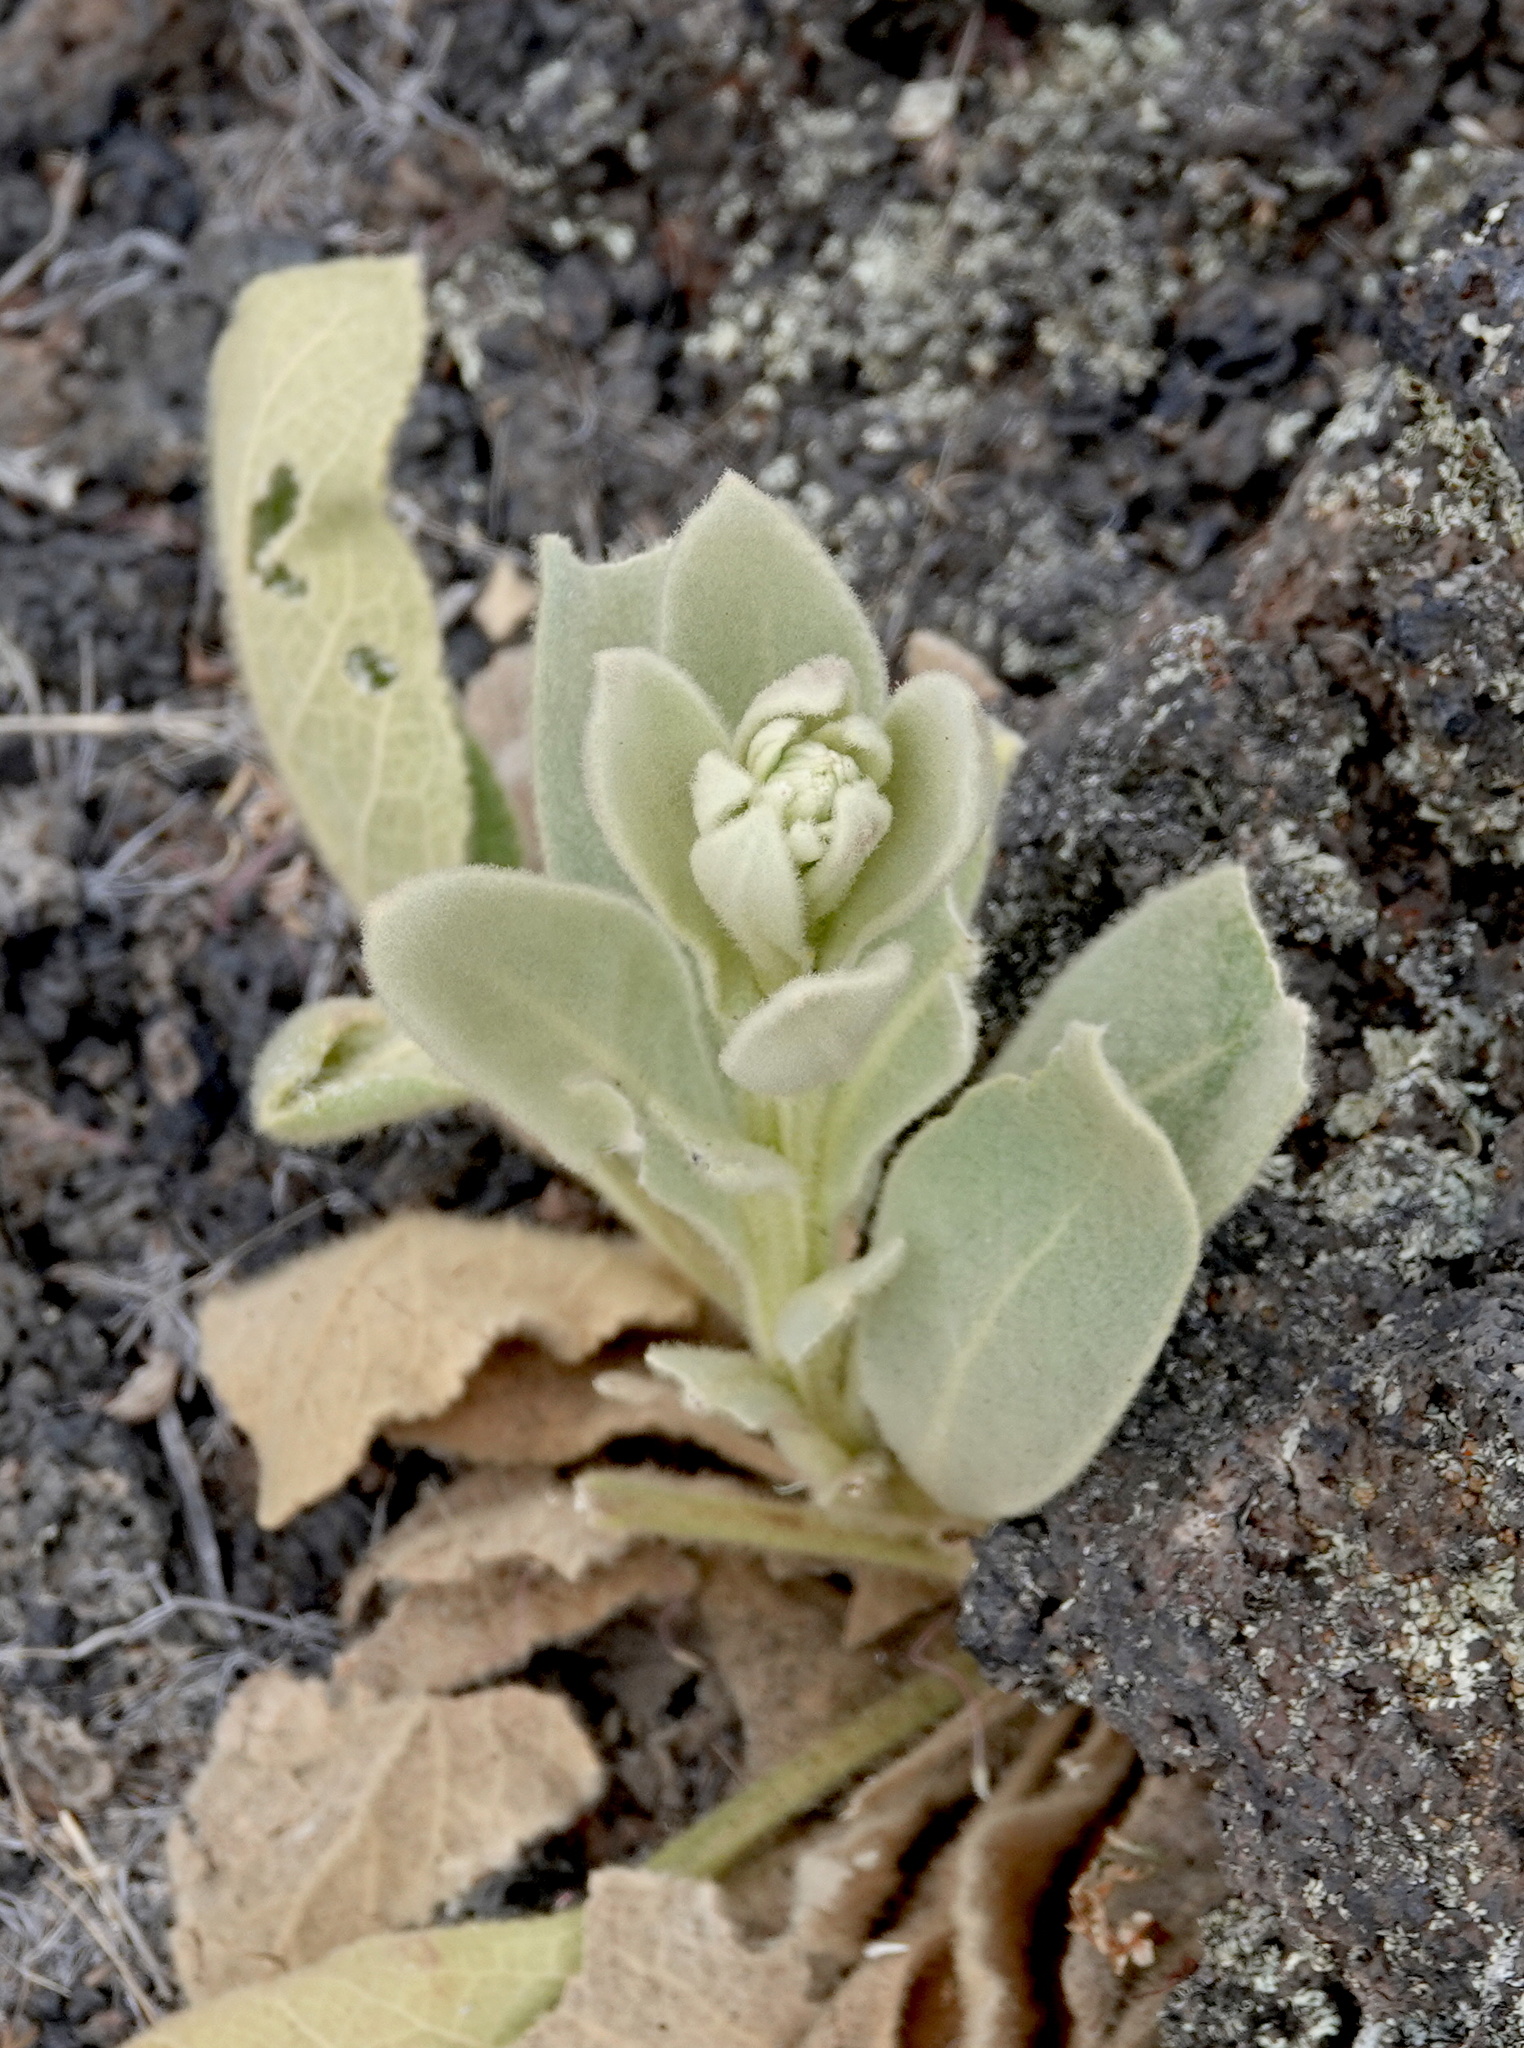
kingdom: Plantae
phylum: Tracheophyta
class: Magnoliopsida
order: Lamiales
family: Scrophulariaceae
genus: Verbascum
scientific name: Verbascum thapsus
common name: Common mullein
